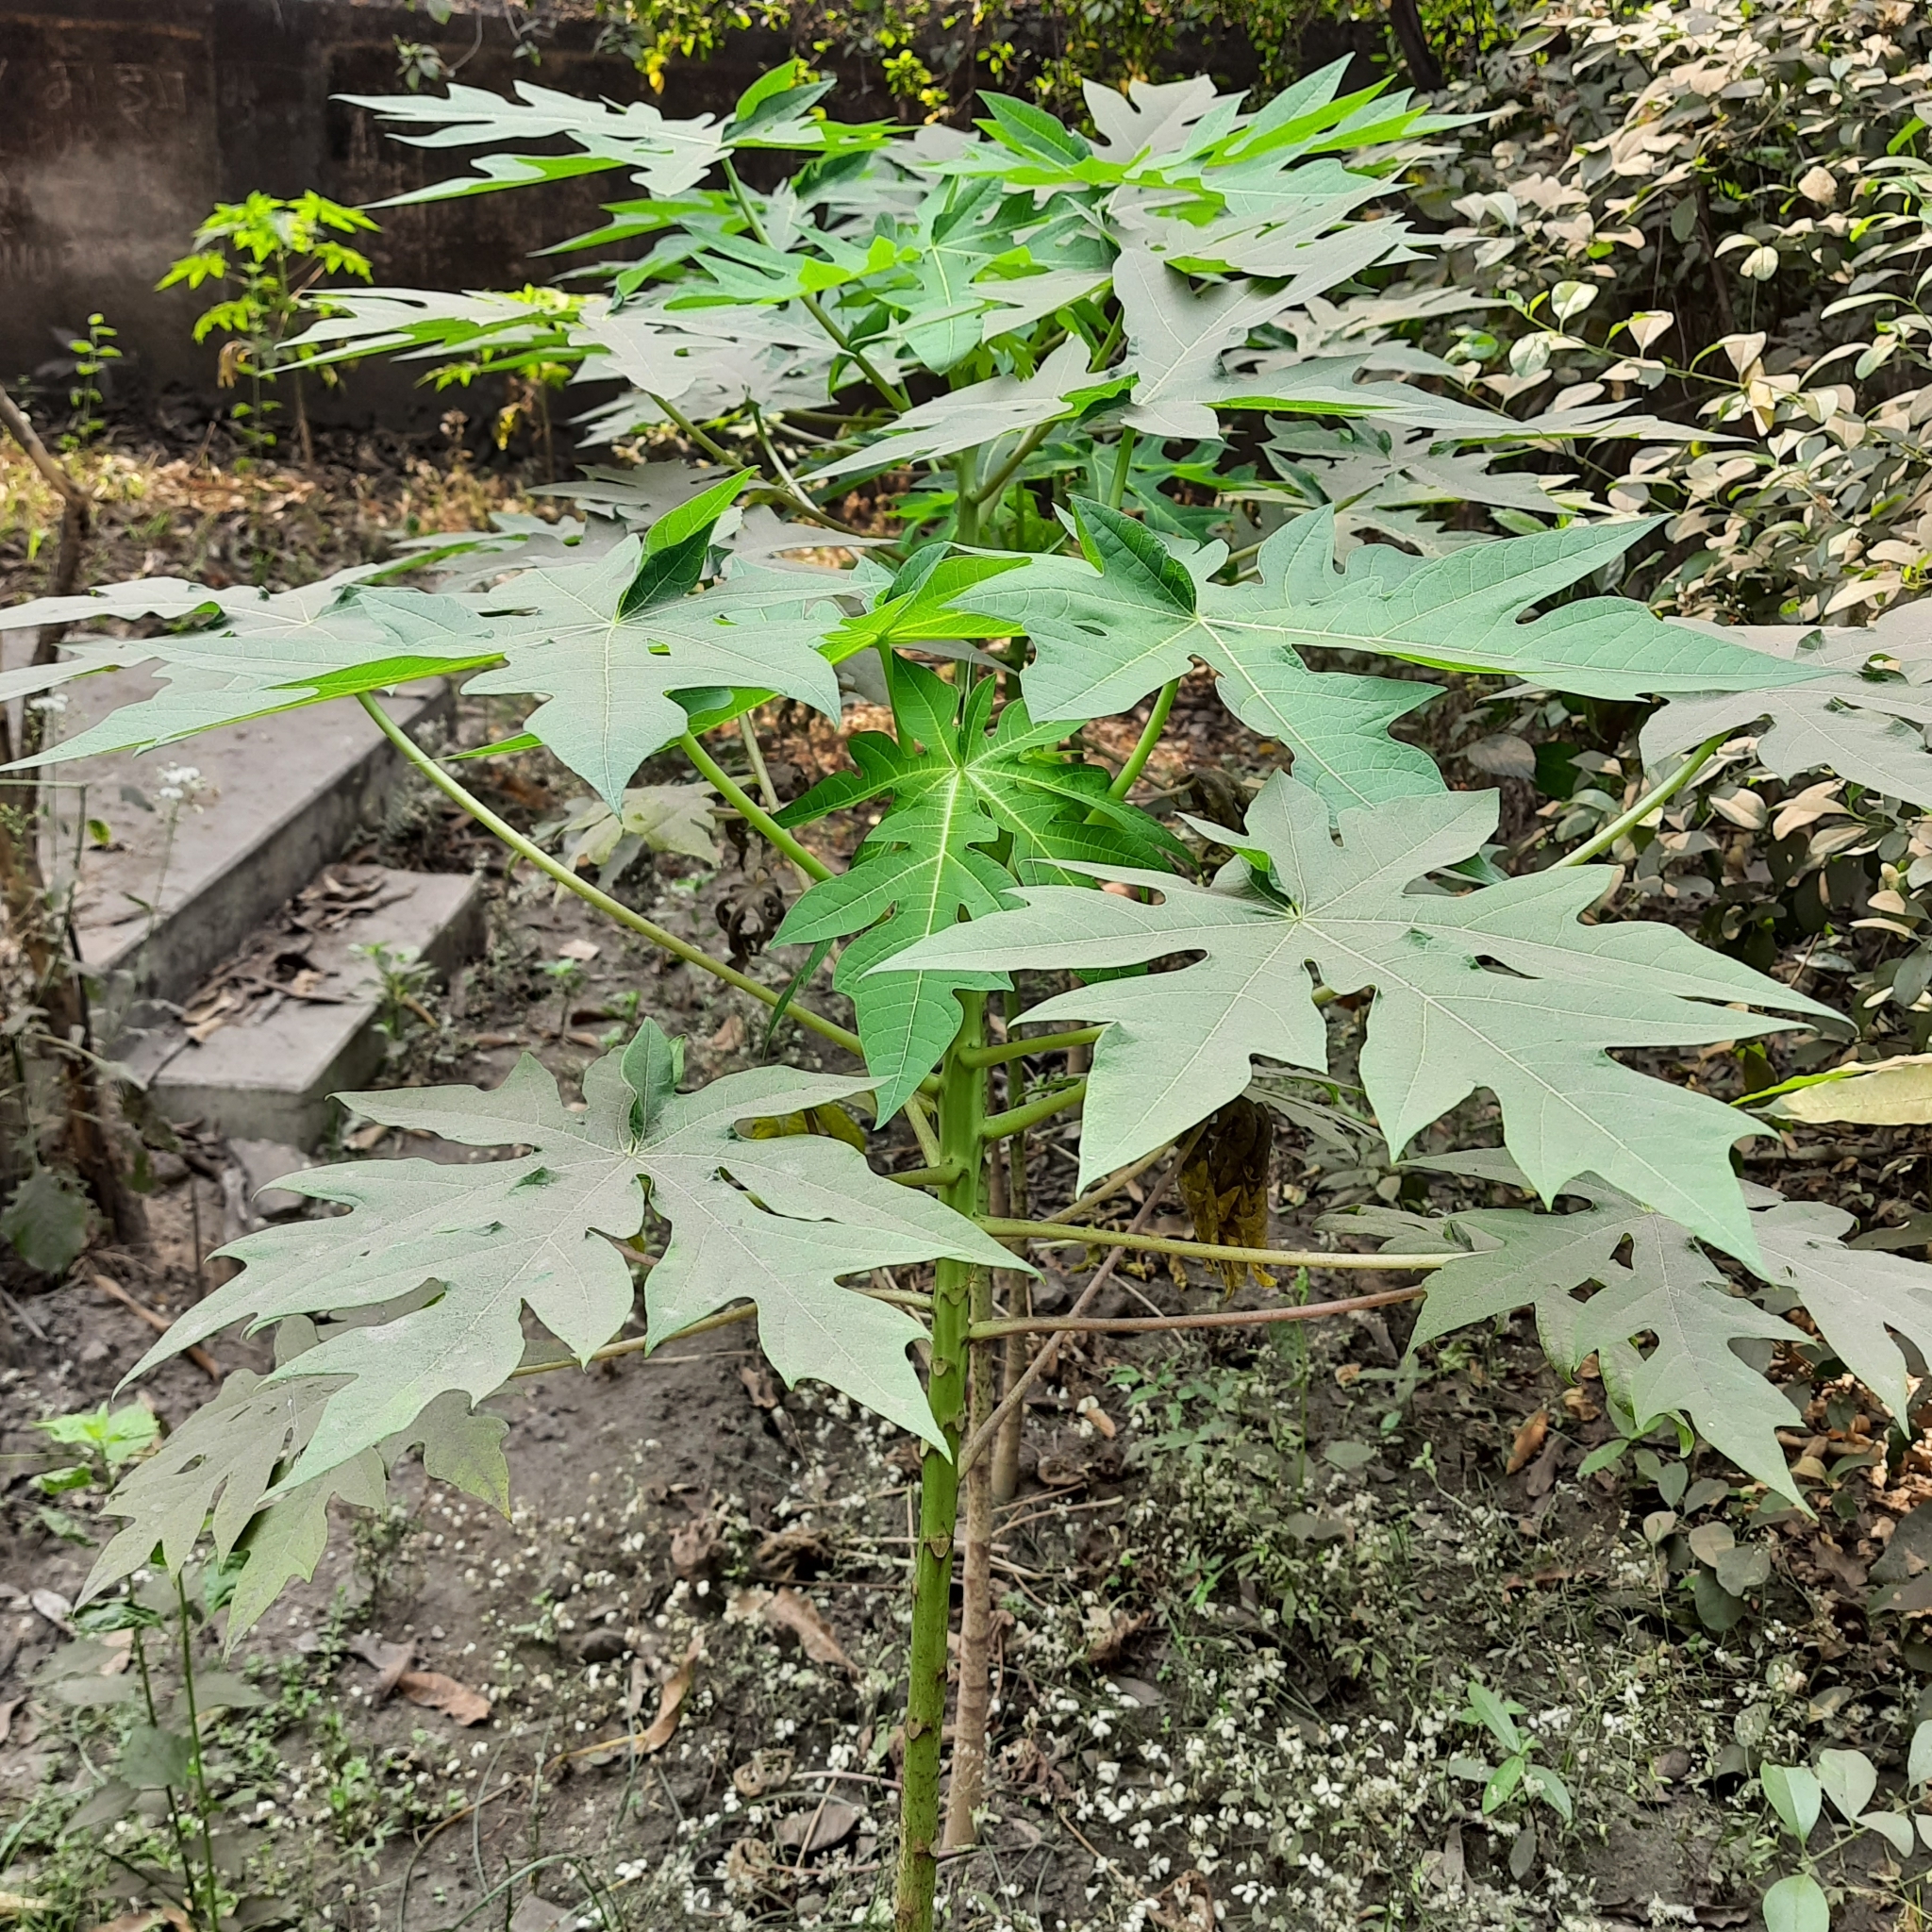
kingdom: Plantae
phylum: Tracheophyta
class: Magnoliopsida
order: Brassicales
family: Caricaceae
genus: Carica
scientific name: Carica papaya
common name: Papaya
